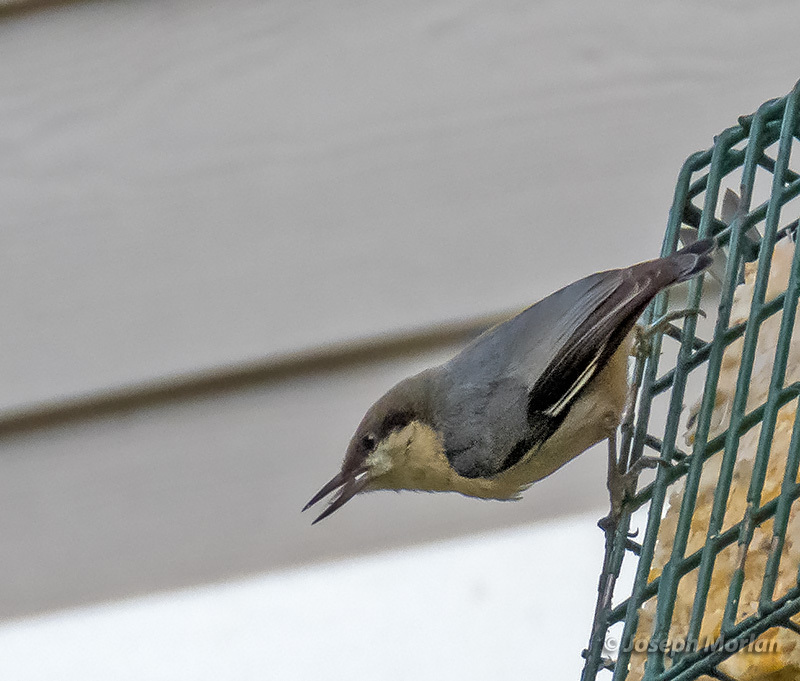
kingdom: Animalia
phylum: Chordata
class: Aves
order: Passeriformes
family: Sittidae
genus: Sitta
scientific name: Sitta pygmaea
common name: Pygmy nuthatch
